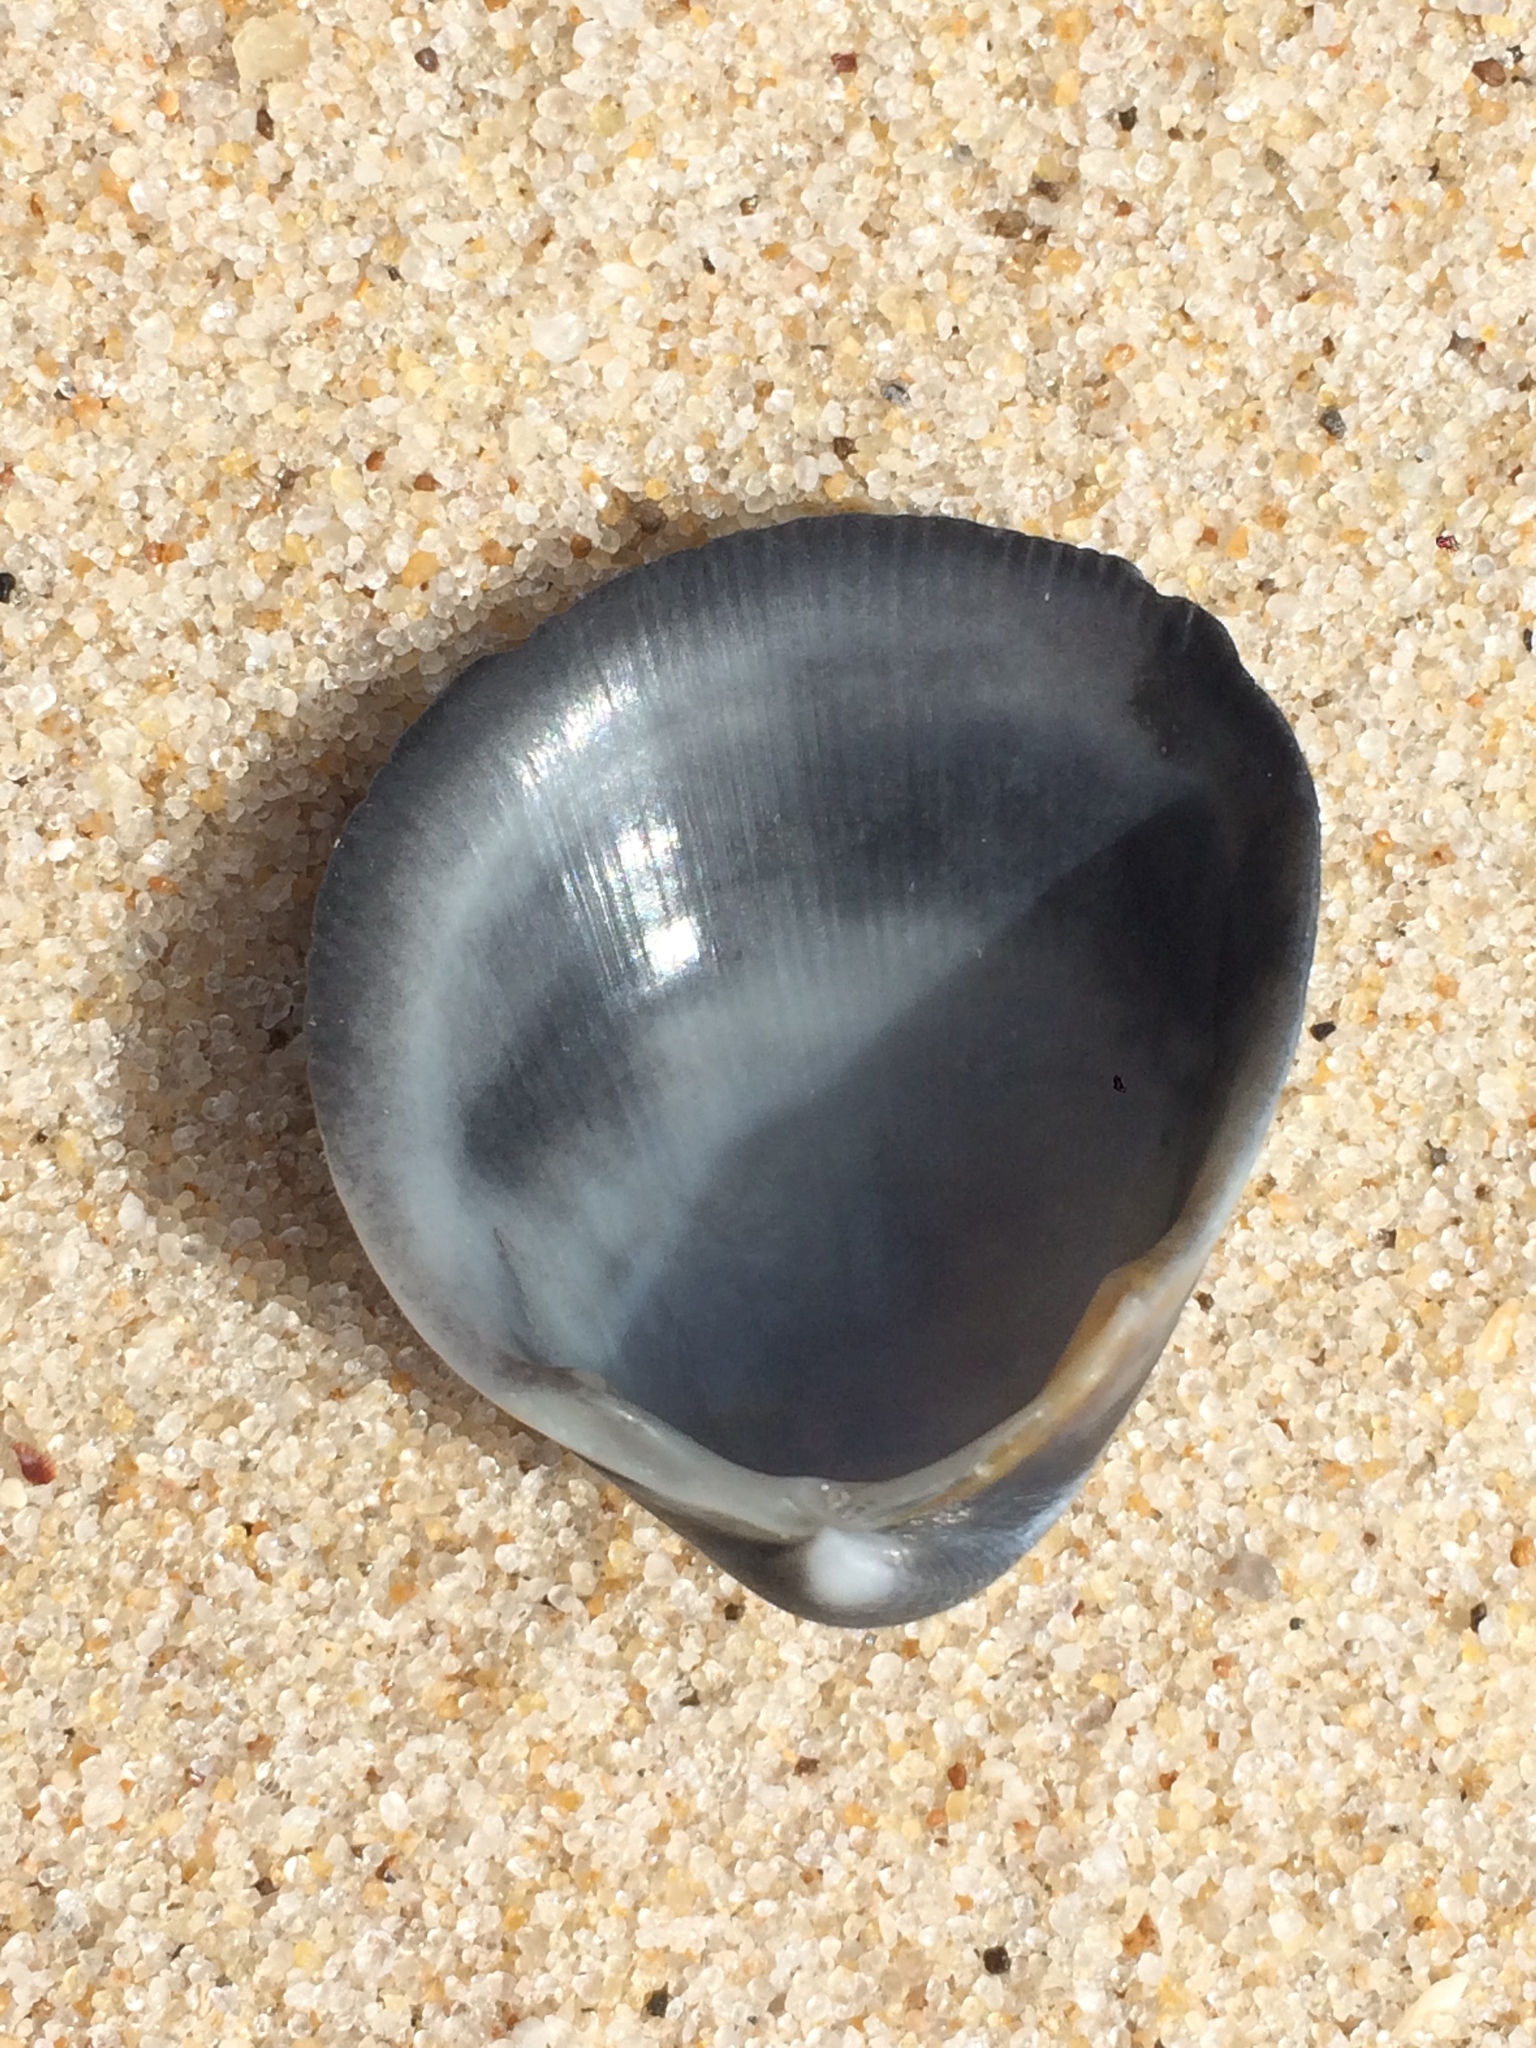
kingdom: Animalia
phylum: Mollusca
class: Bivalvia
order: Cardiida
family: Cardiidae
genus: Laevicardium
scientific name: Laevicardium brasilianum
